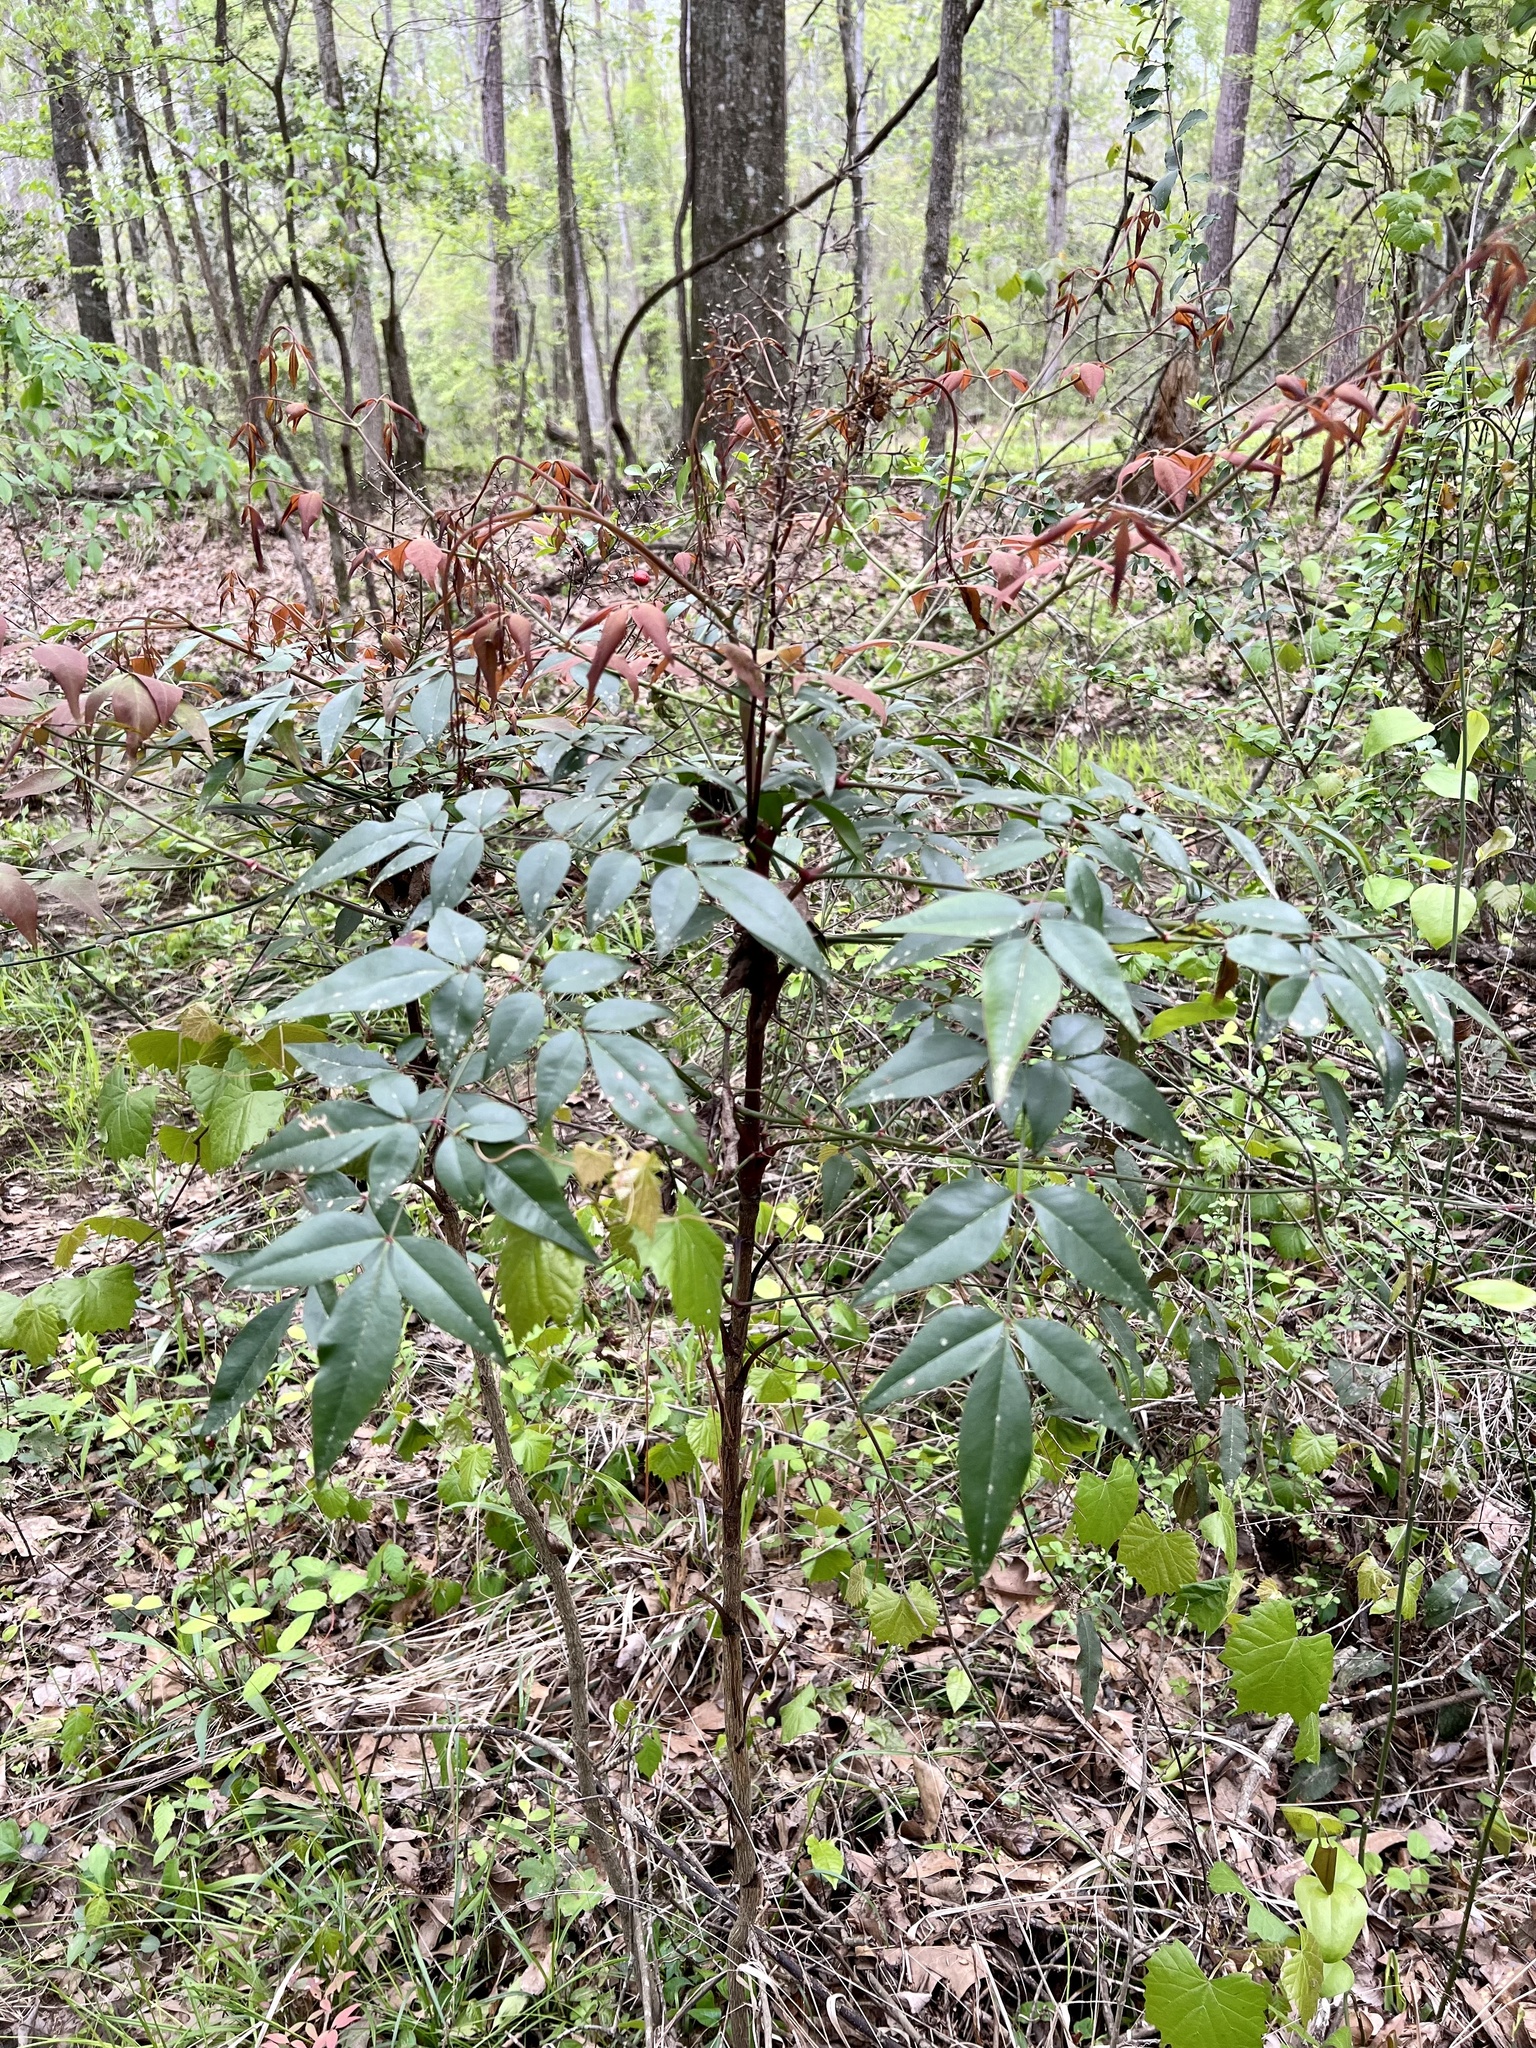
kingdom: Plantae
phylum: Tracheophyta
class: Magnoliopsida
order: Ranunculales
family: Berberidaceae
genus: Nandina
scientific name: Nandina domestica
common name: Sacred bamboo
